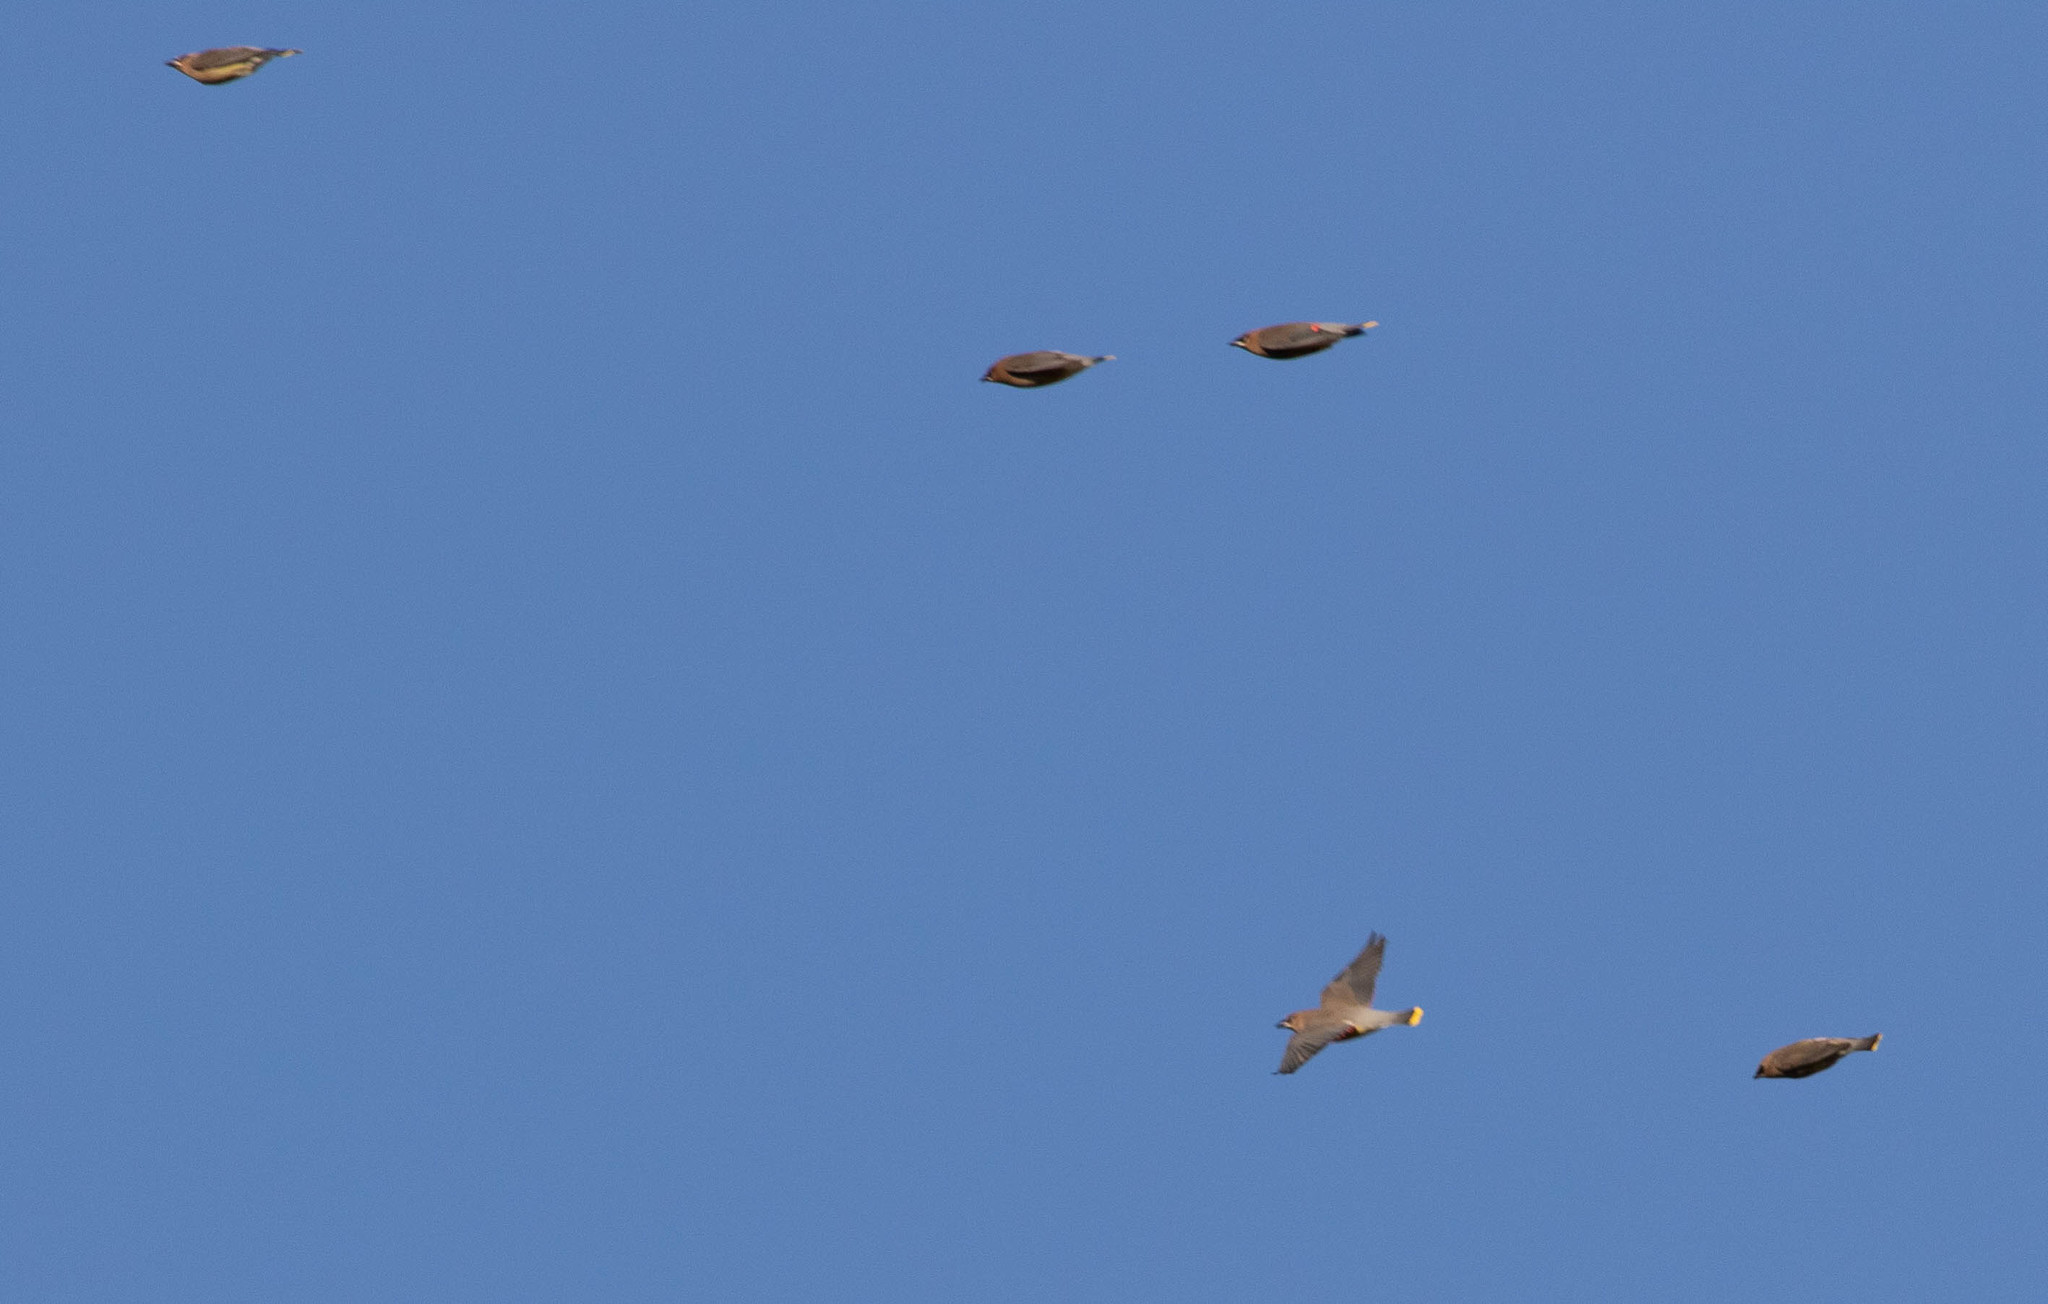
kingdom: Animalia
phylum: Chordata
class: Aves
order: Passeriformes
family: Bombycillidae
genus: Bombycilla
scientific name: Bombycilla cedrorum
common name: Cedar waxwing
